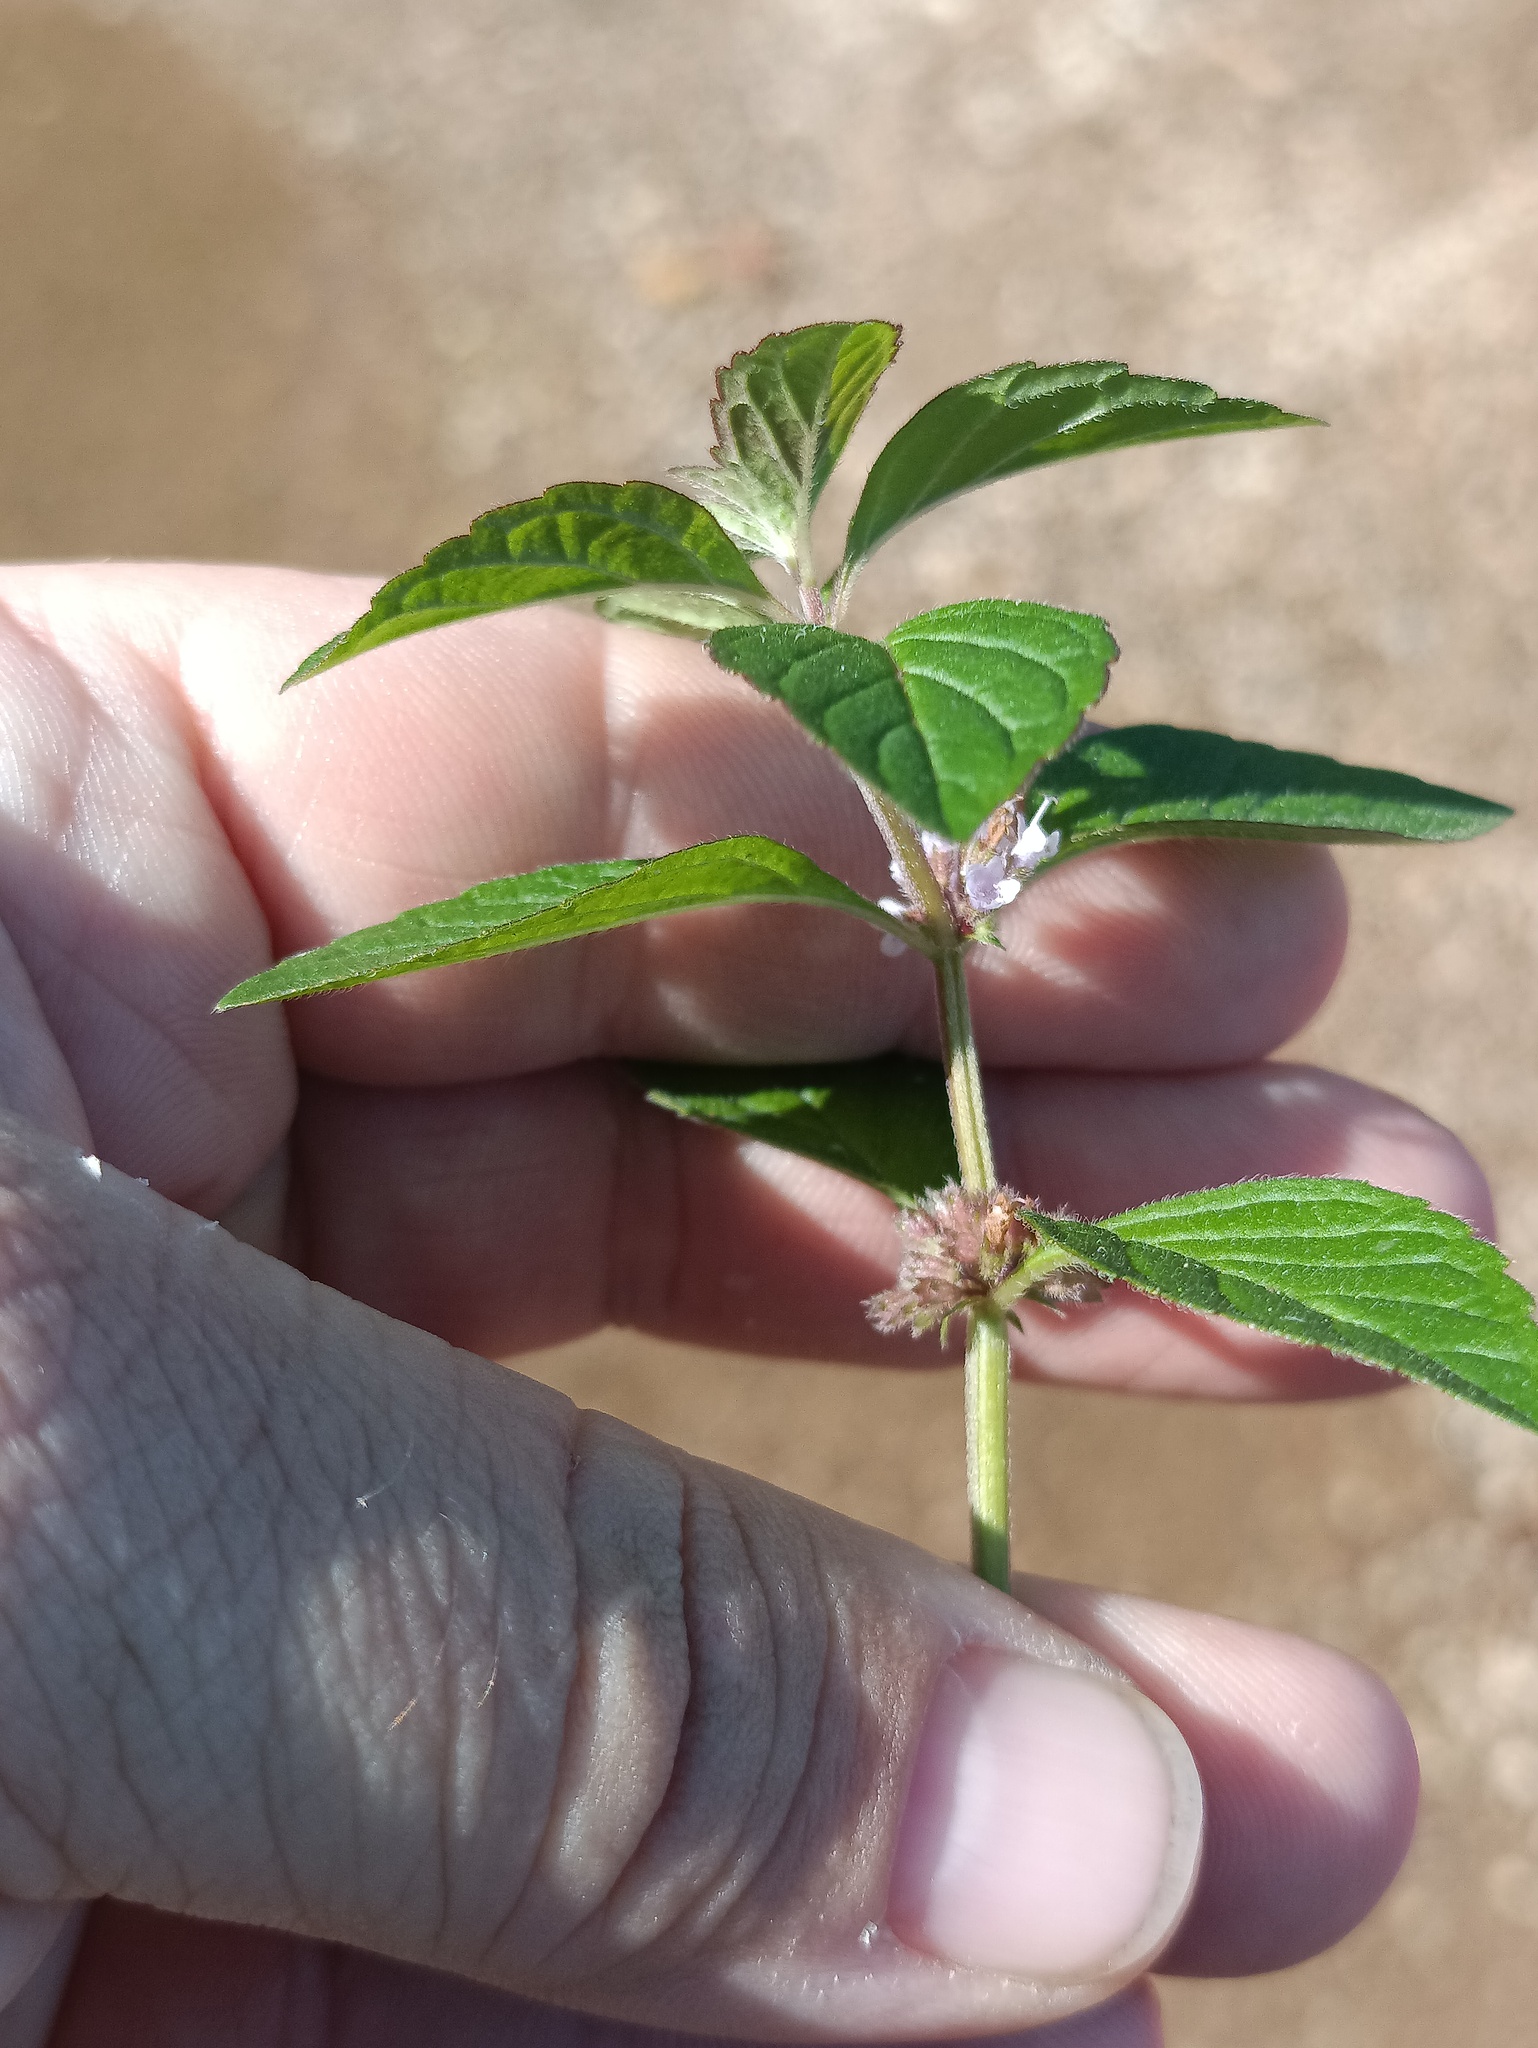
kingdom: Plantae
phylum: Tracheophyta
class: Magnoliopsida
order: Lamiales
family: Lamiaceae
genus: Mentha
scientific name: Mentha arvensis
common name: Corn mint
